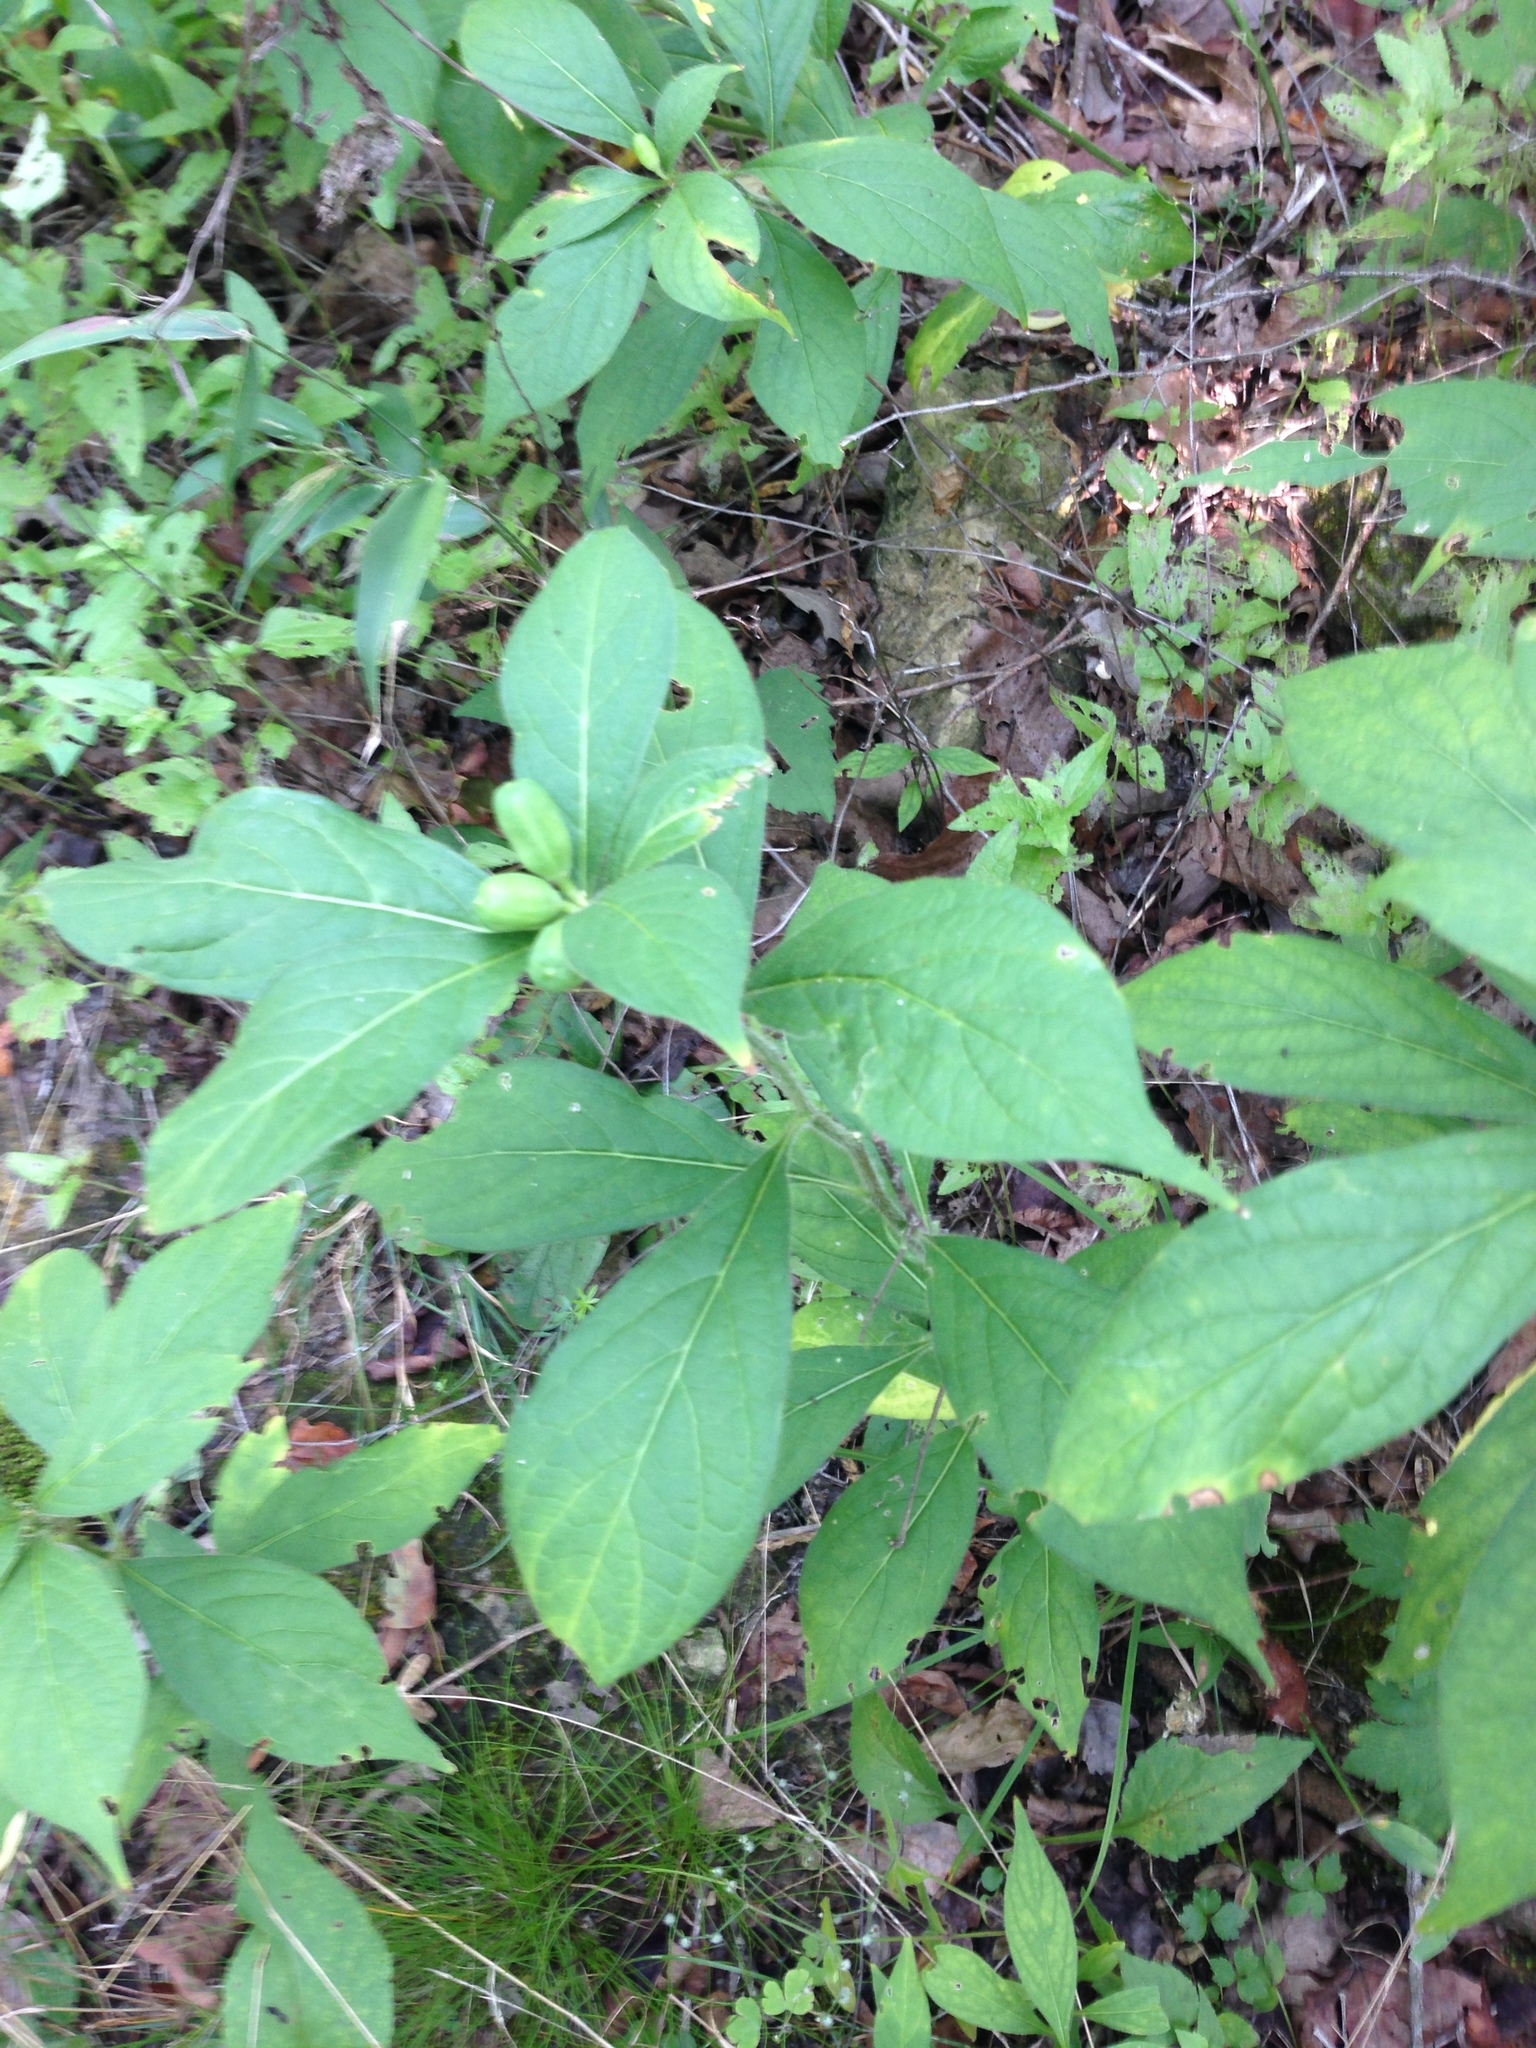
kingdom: Plantae
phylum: Tracheophyta
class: Magnoliopsida
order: Malpighiales
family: Violaceae
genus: Cubelium
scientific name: Cubelium concolor
